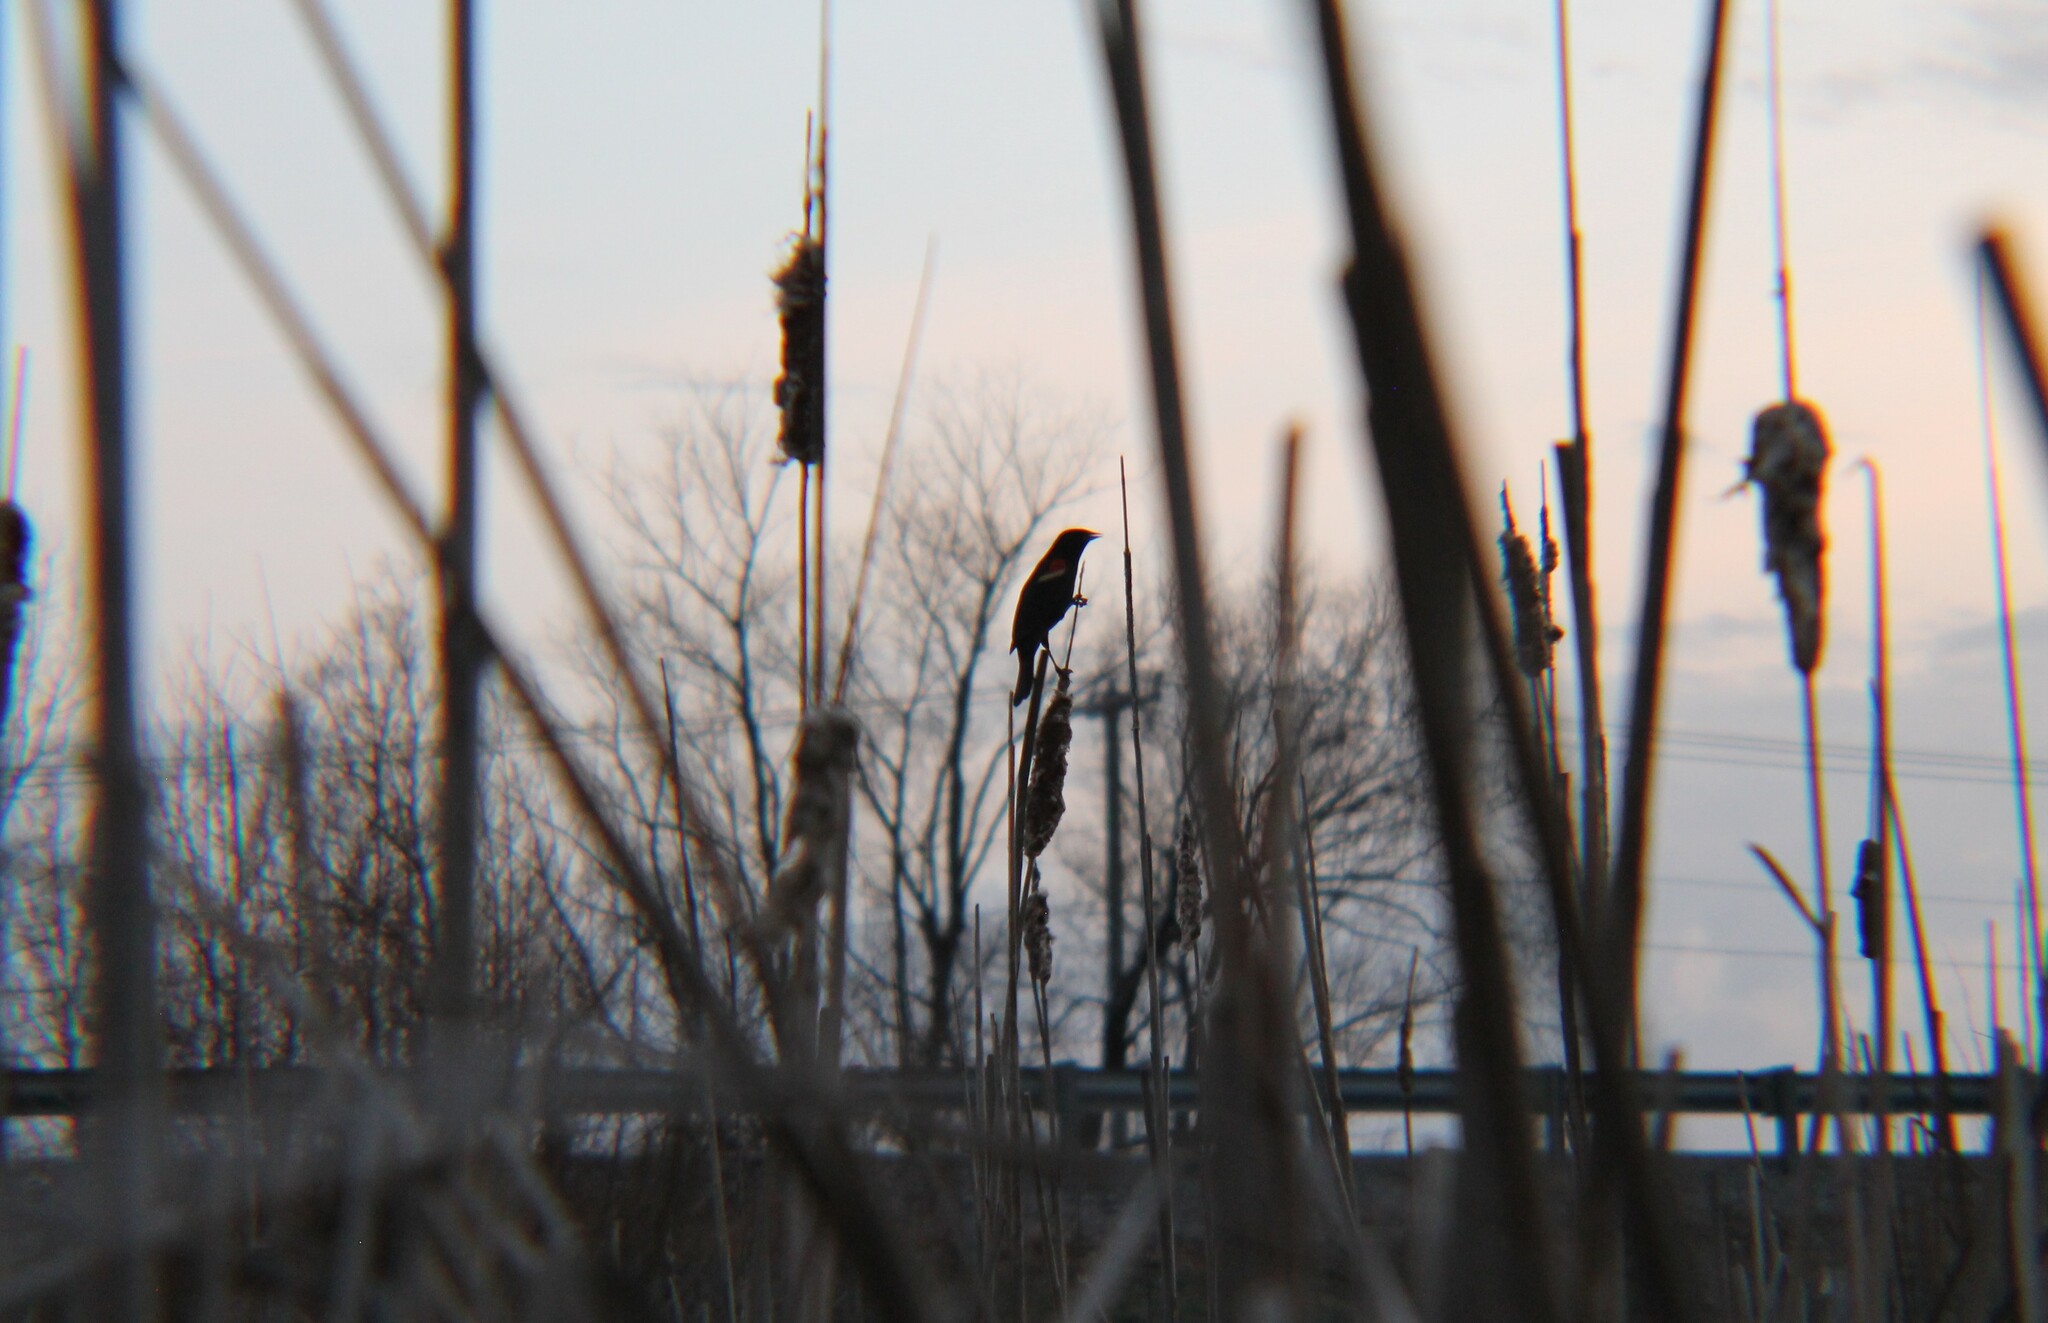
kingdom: Animalia
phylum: Chordata
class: Aves
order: Passeriformes
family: Icteridae
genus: Agelaius
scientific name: Agelaius phoeniceus
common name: Red-winged blackbird
